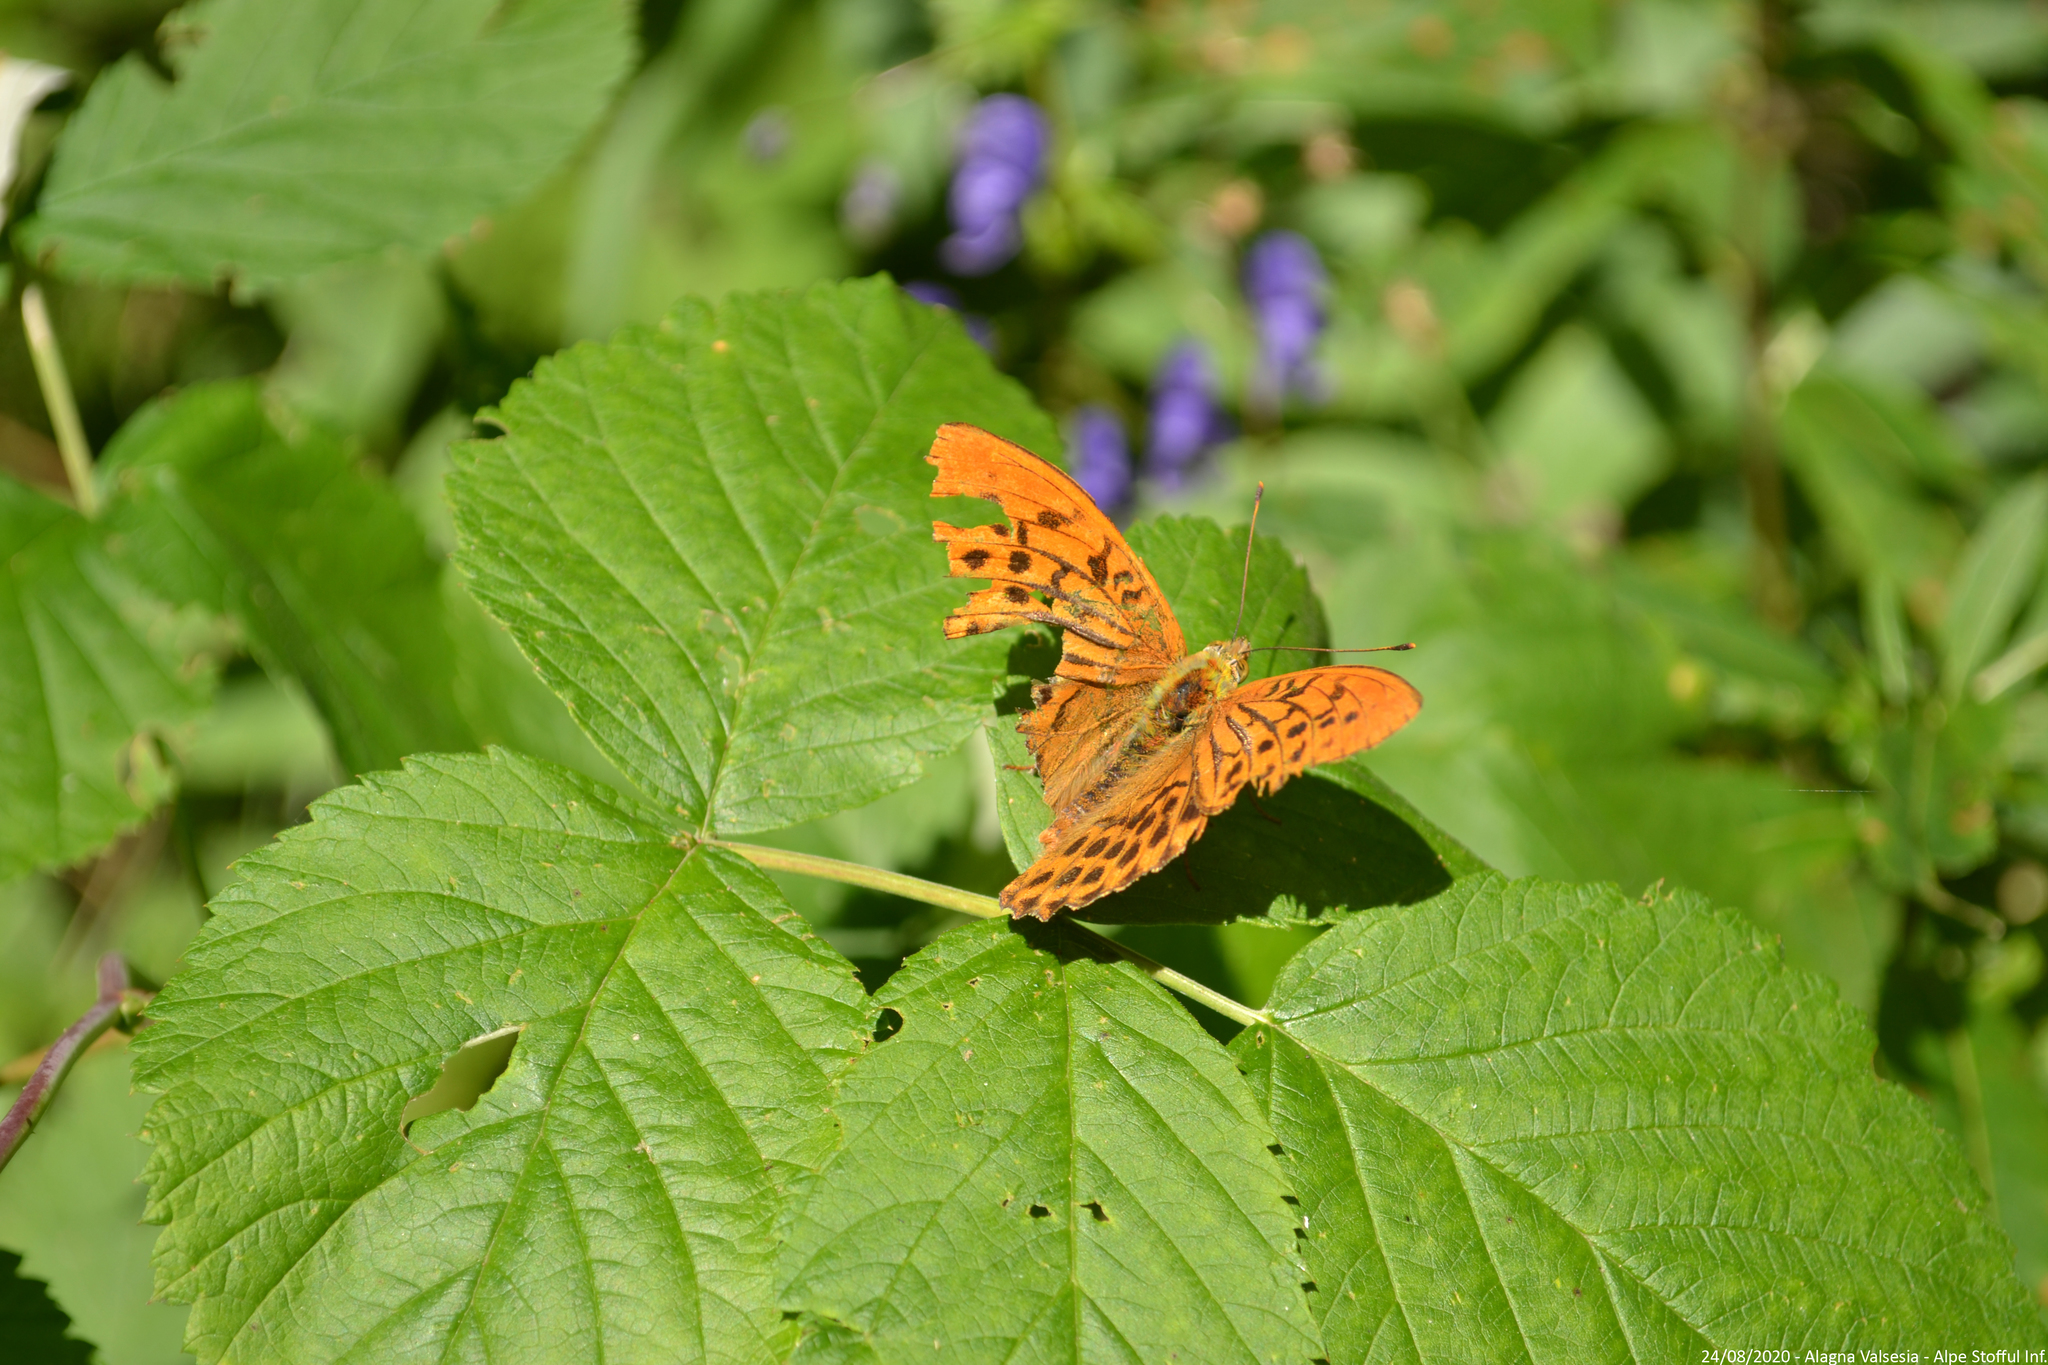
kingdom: Animalia
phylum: Arthropoda
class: Insecta
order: Lepidoptera
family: Nymphalidae
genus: Argynnis
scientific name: Argynnis paphia
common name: Silver-washed fritillary
